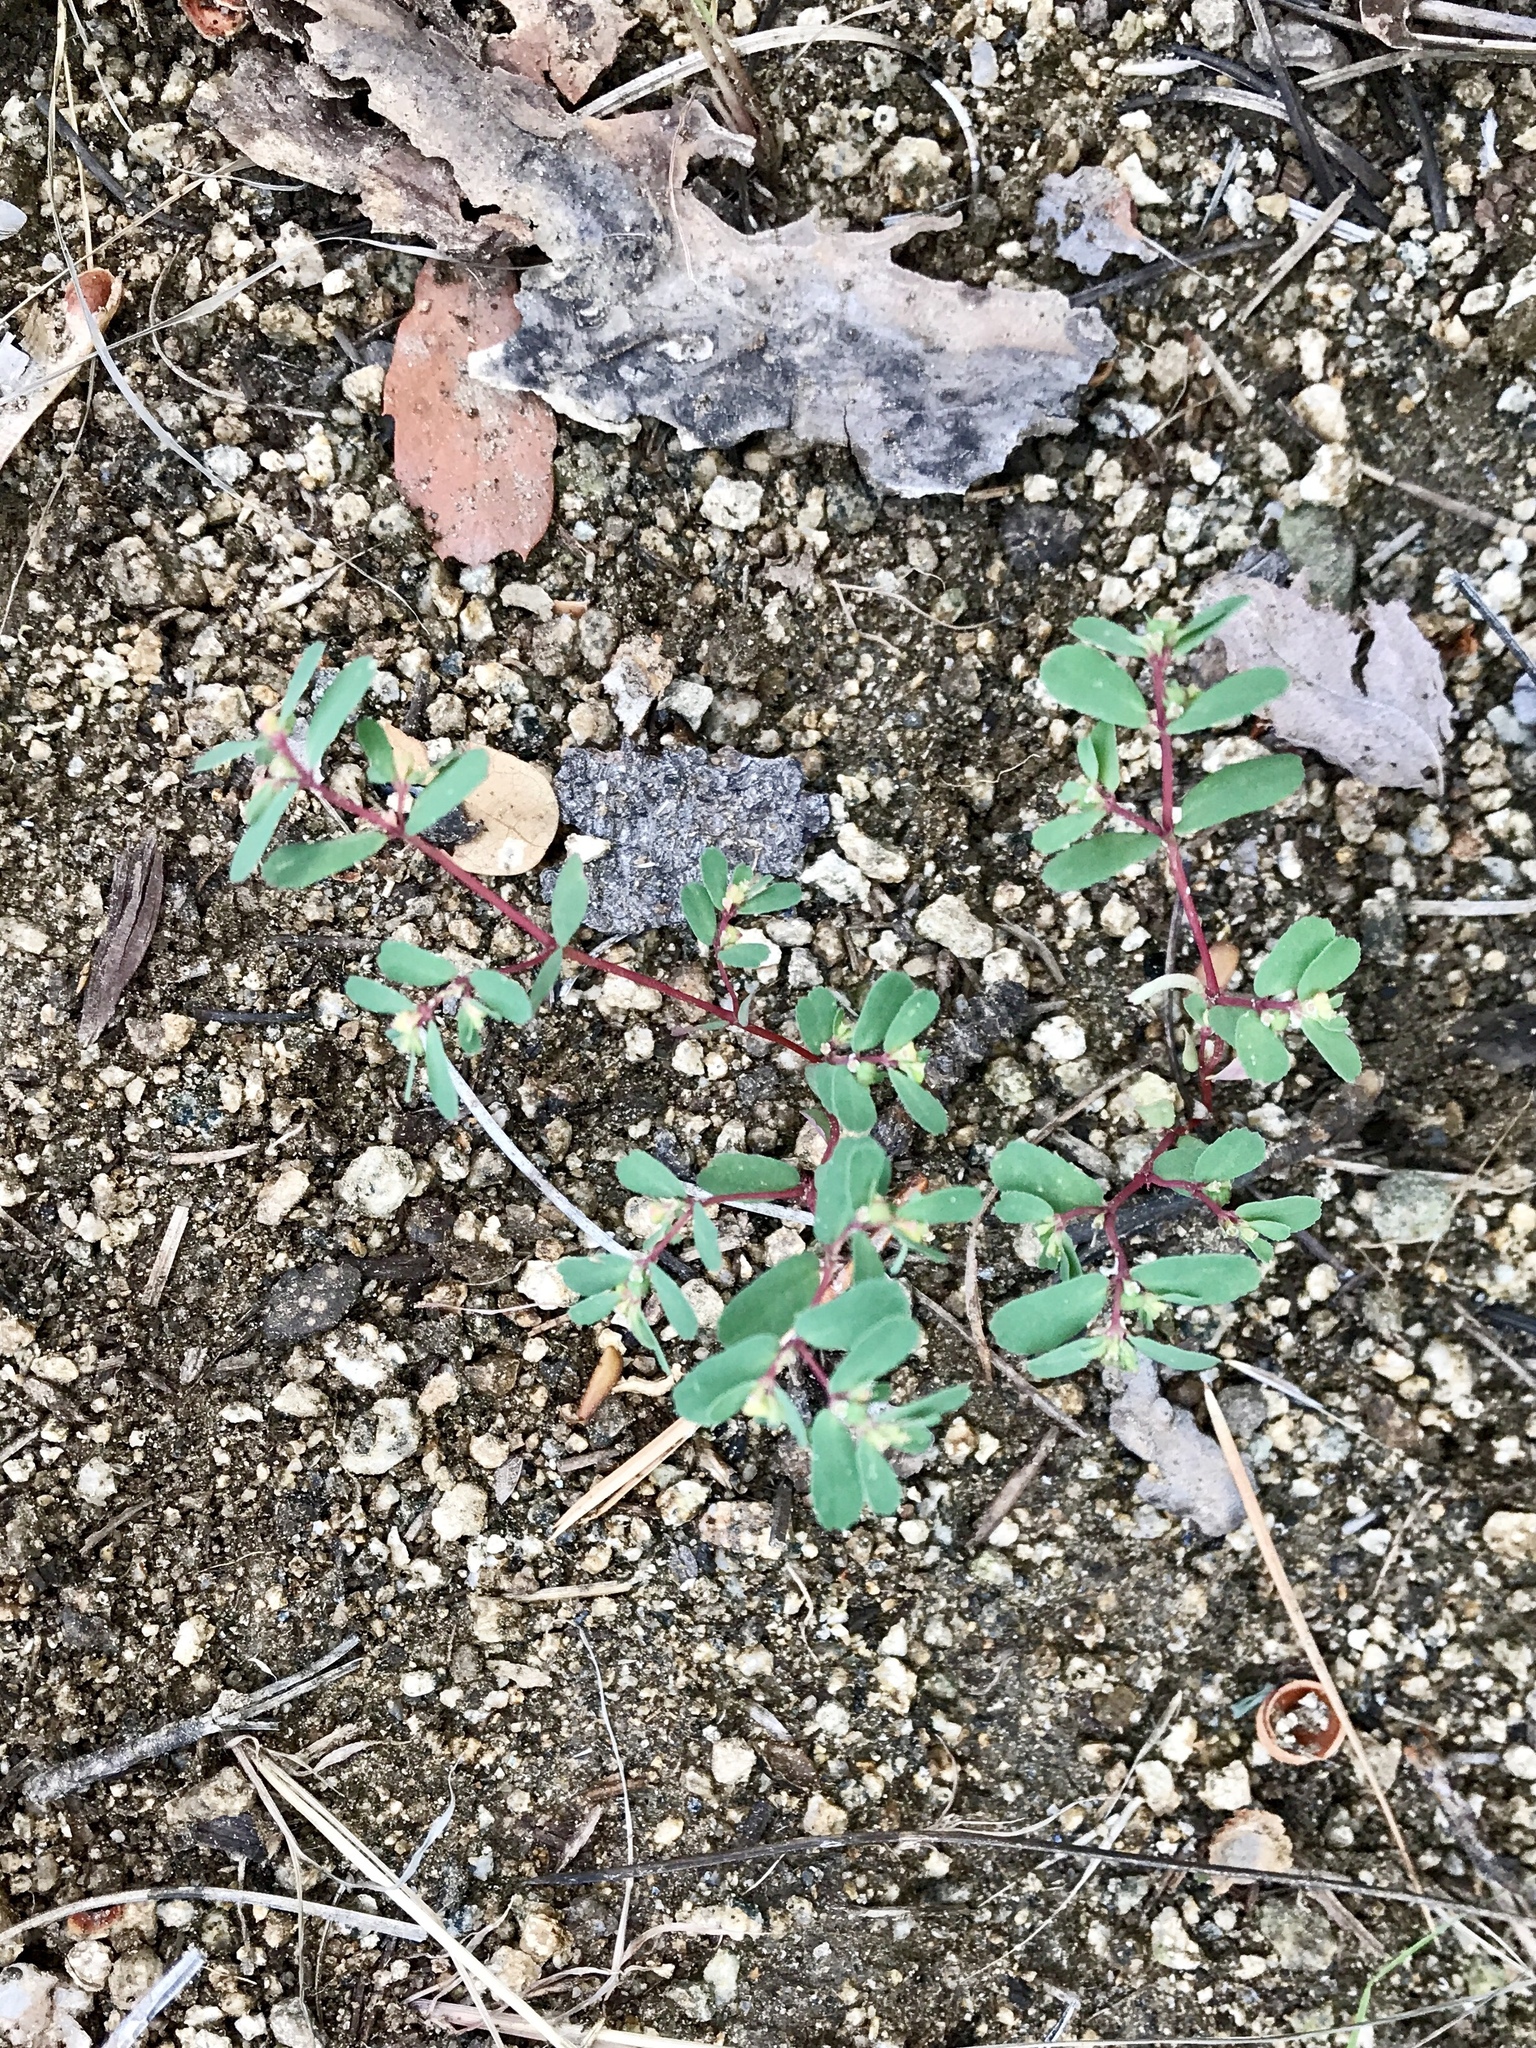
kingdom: Plantae
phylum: Tracheophyta
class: Magnoliopsida
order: Malpighiales
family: Euphorbiaceae
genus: Euphorbia
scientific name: Euphorbia serpillifolia
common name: Thyme-leaf spurge
